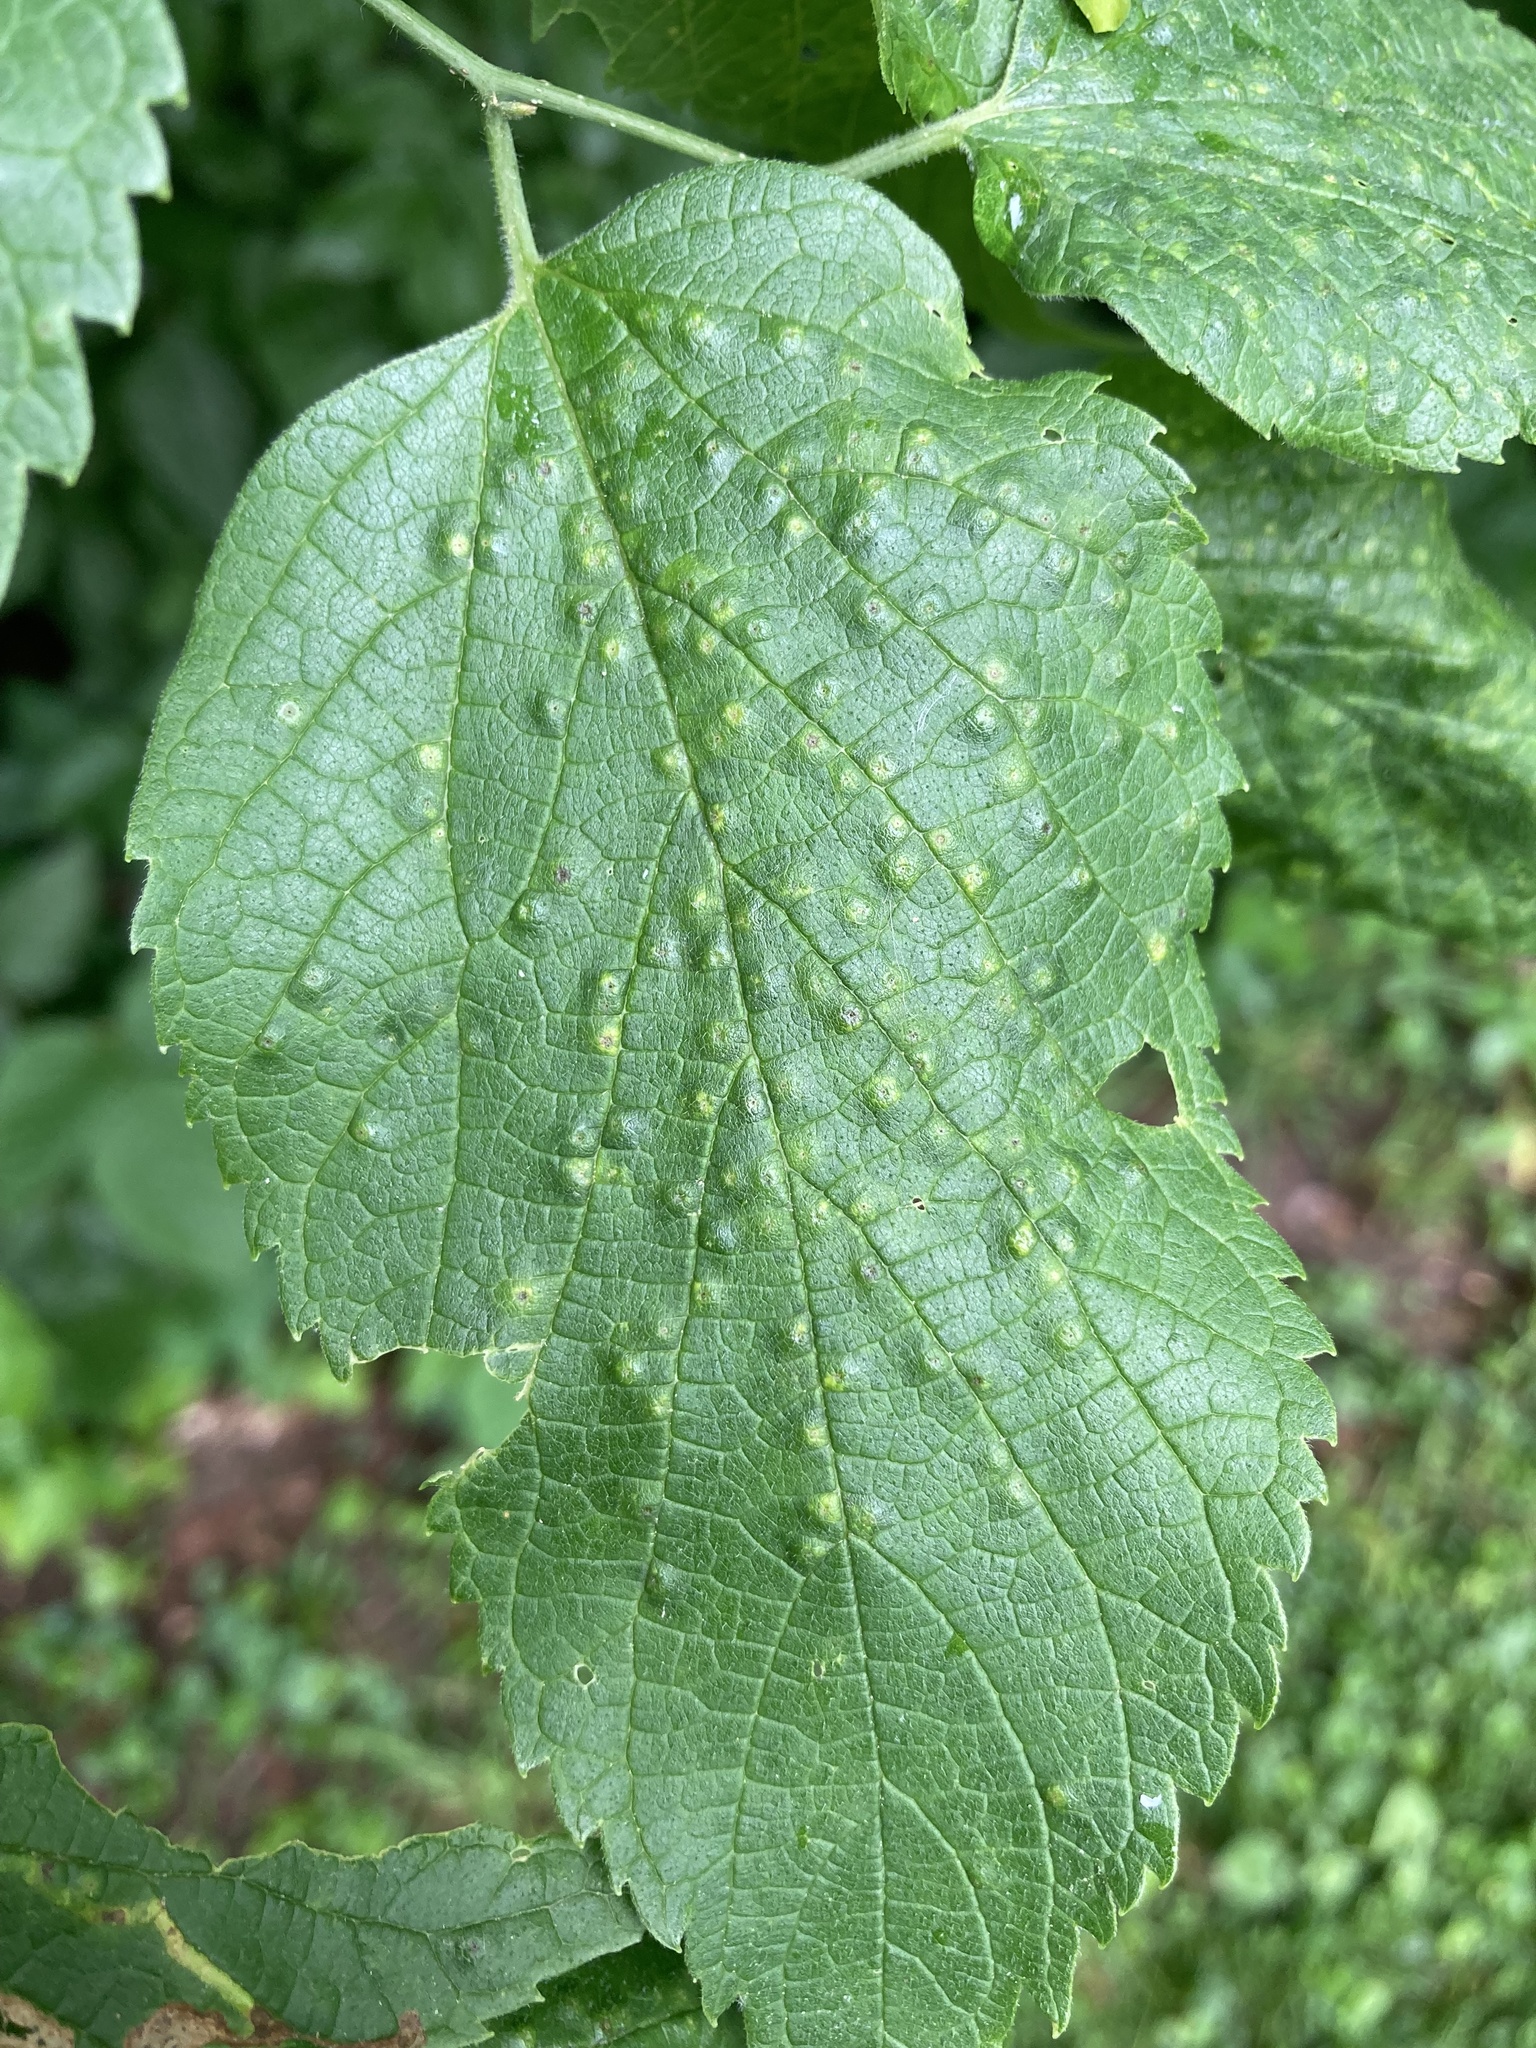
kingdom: Animalia
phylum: Arthropoda
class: Insecta
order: Hemiptera
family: Aphalaridae
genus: Pachypsylla
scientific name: Pachypsylla celtidisvesicula
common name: Hackberry blister gall psyllid
